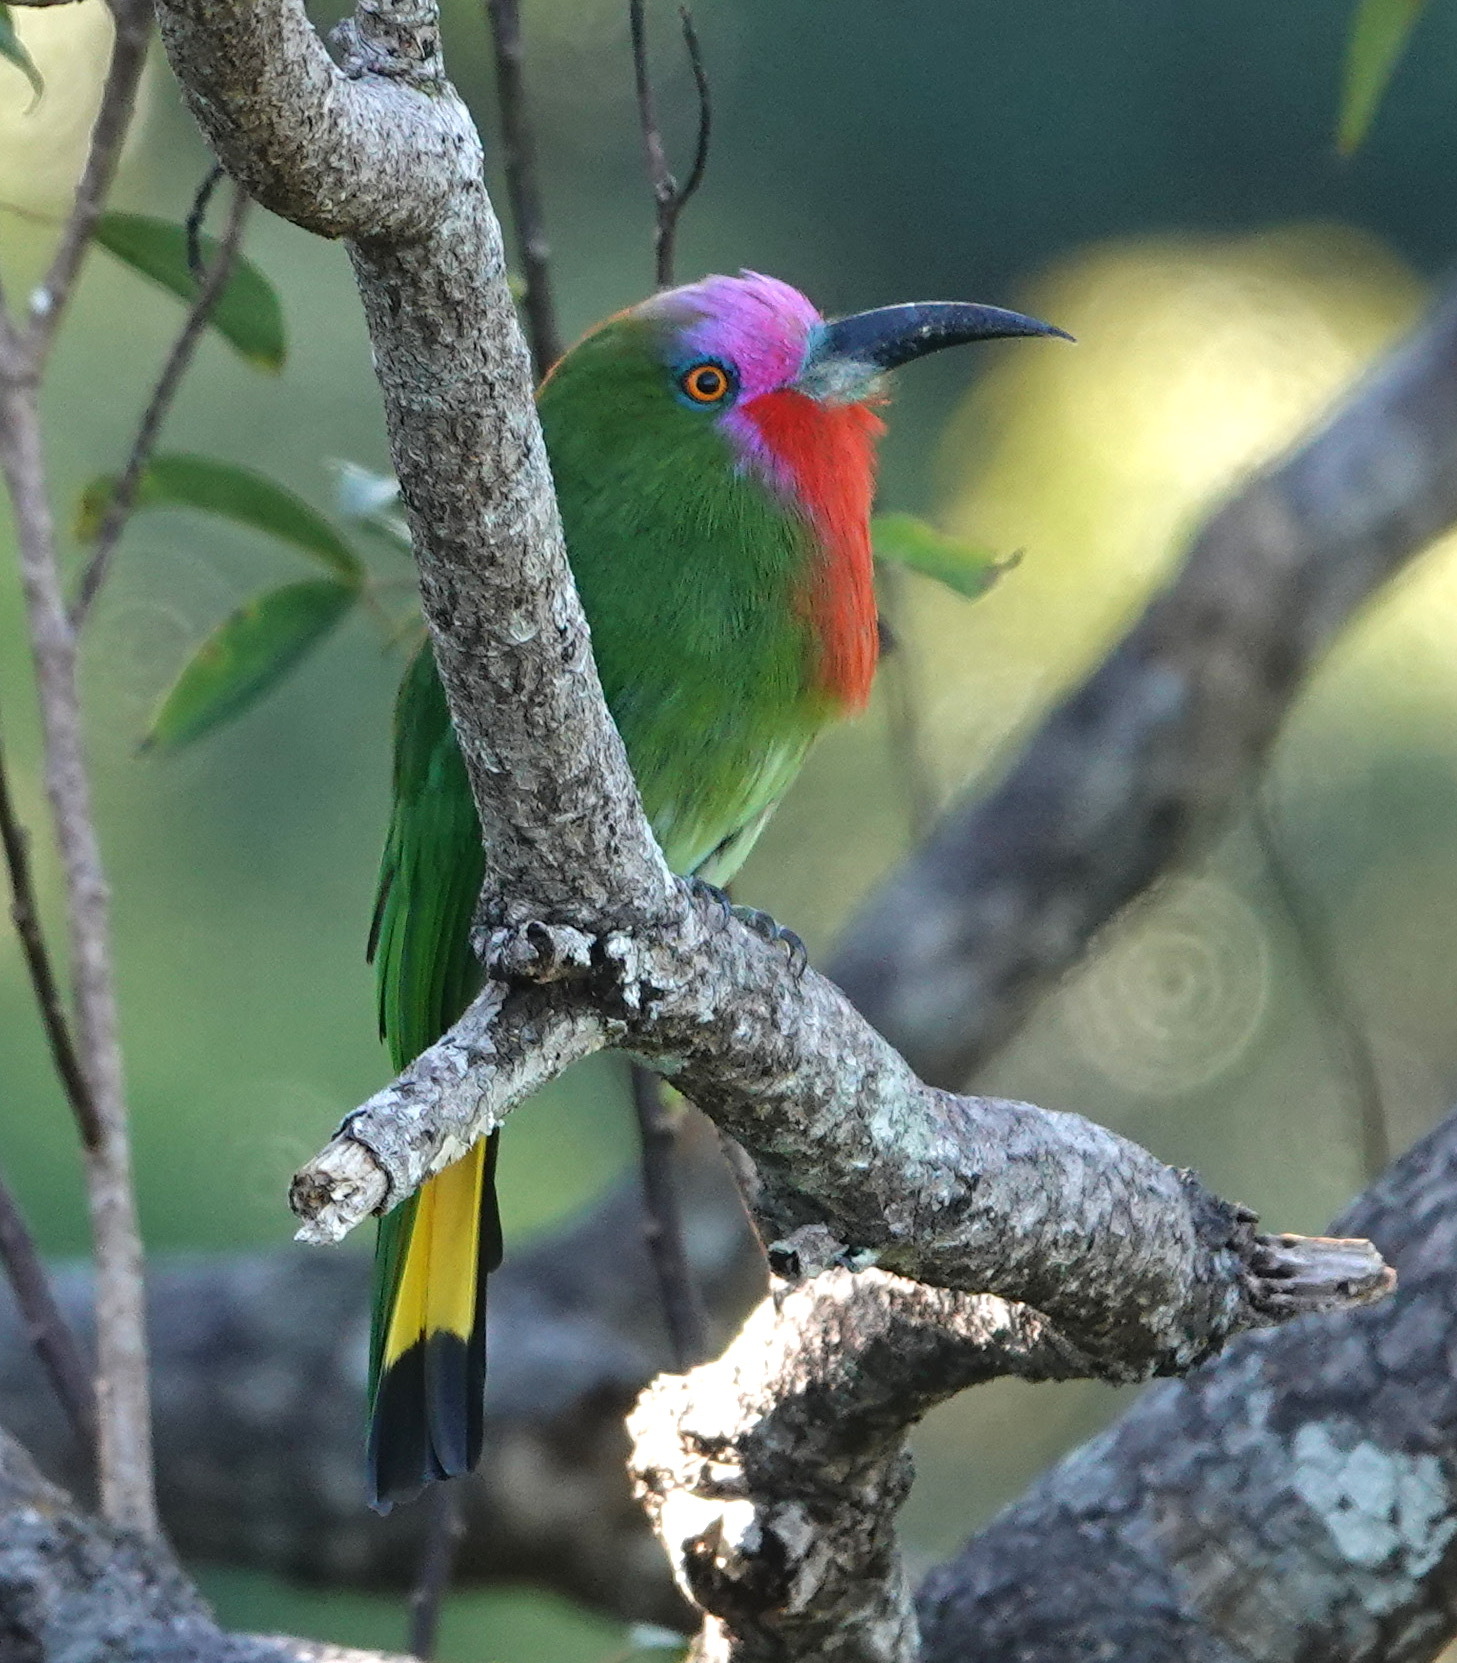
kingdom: Animalia
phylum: Chordata
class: Aves
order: Coraciiformes
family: Meropidae
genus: Nyctyornis
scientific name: Nyctyornis amictus
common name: Red-bearded bee-eater
